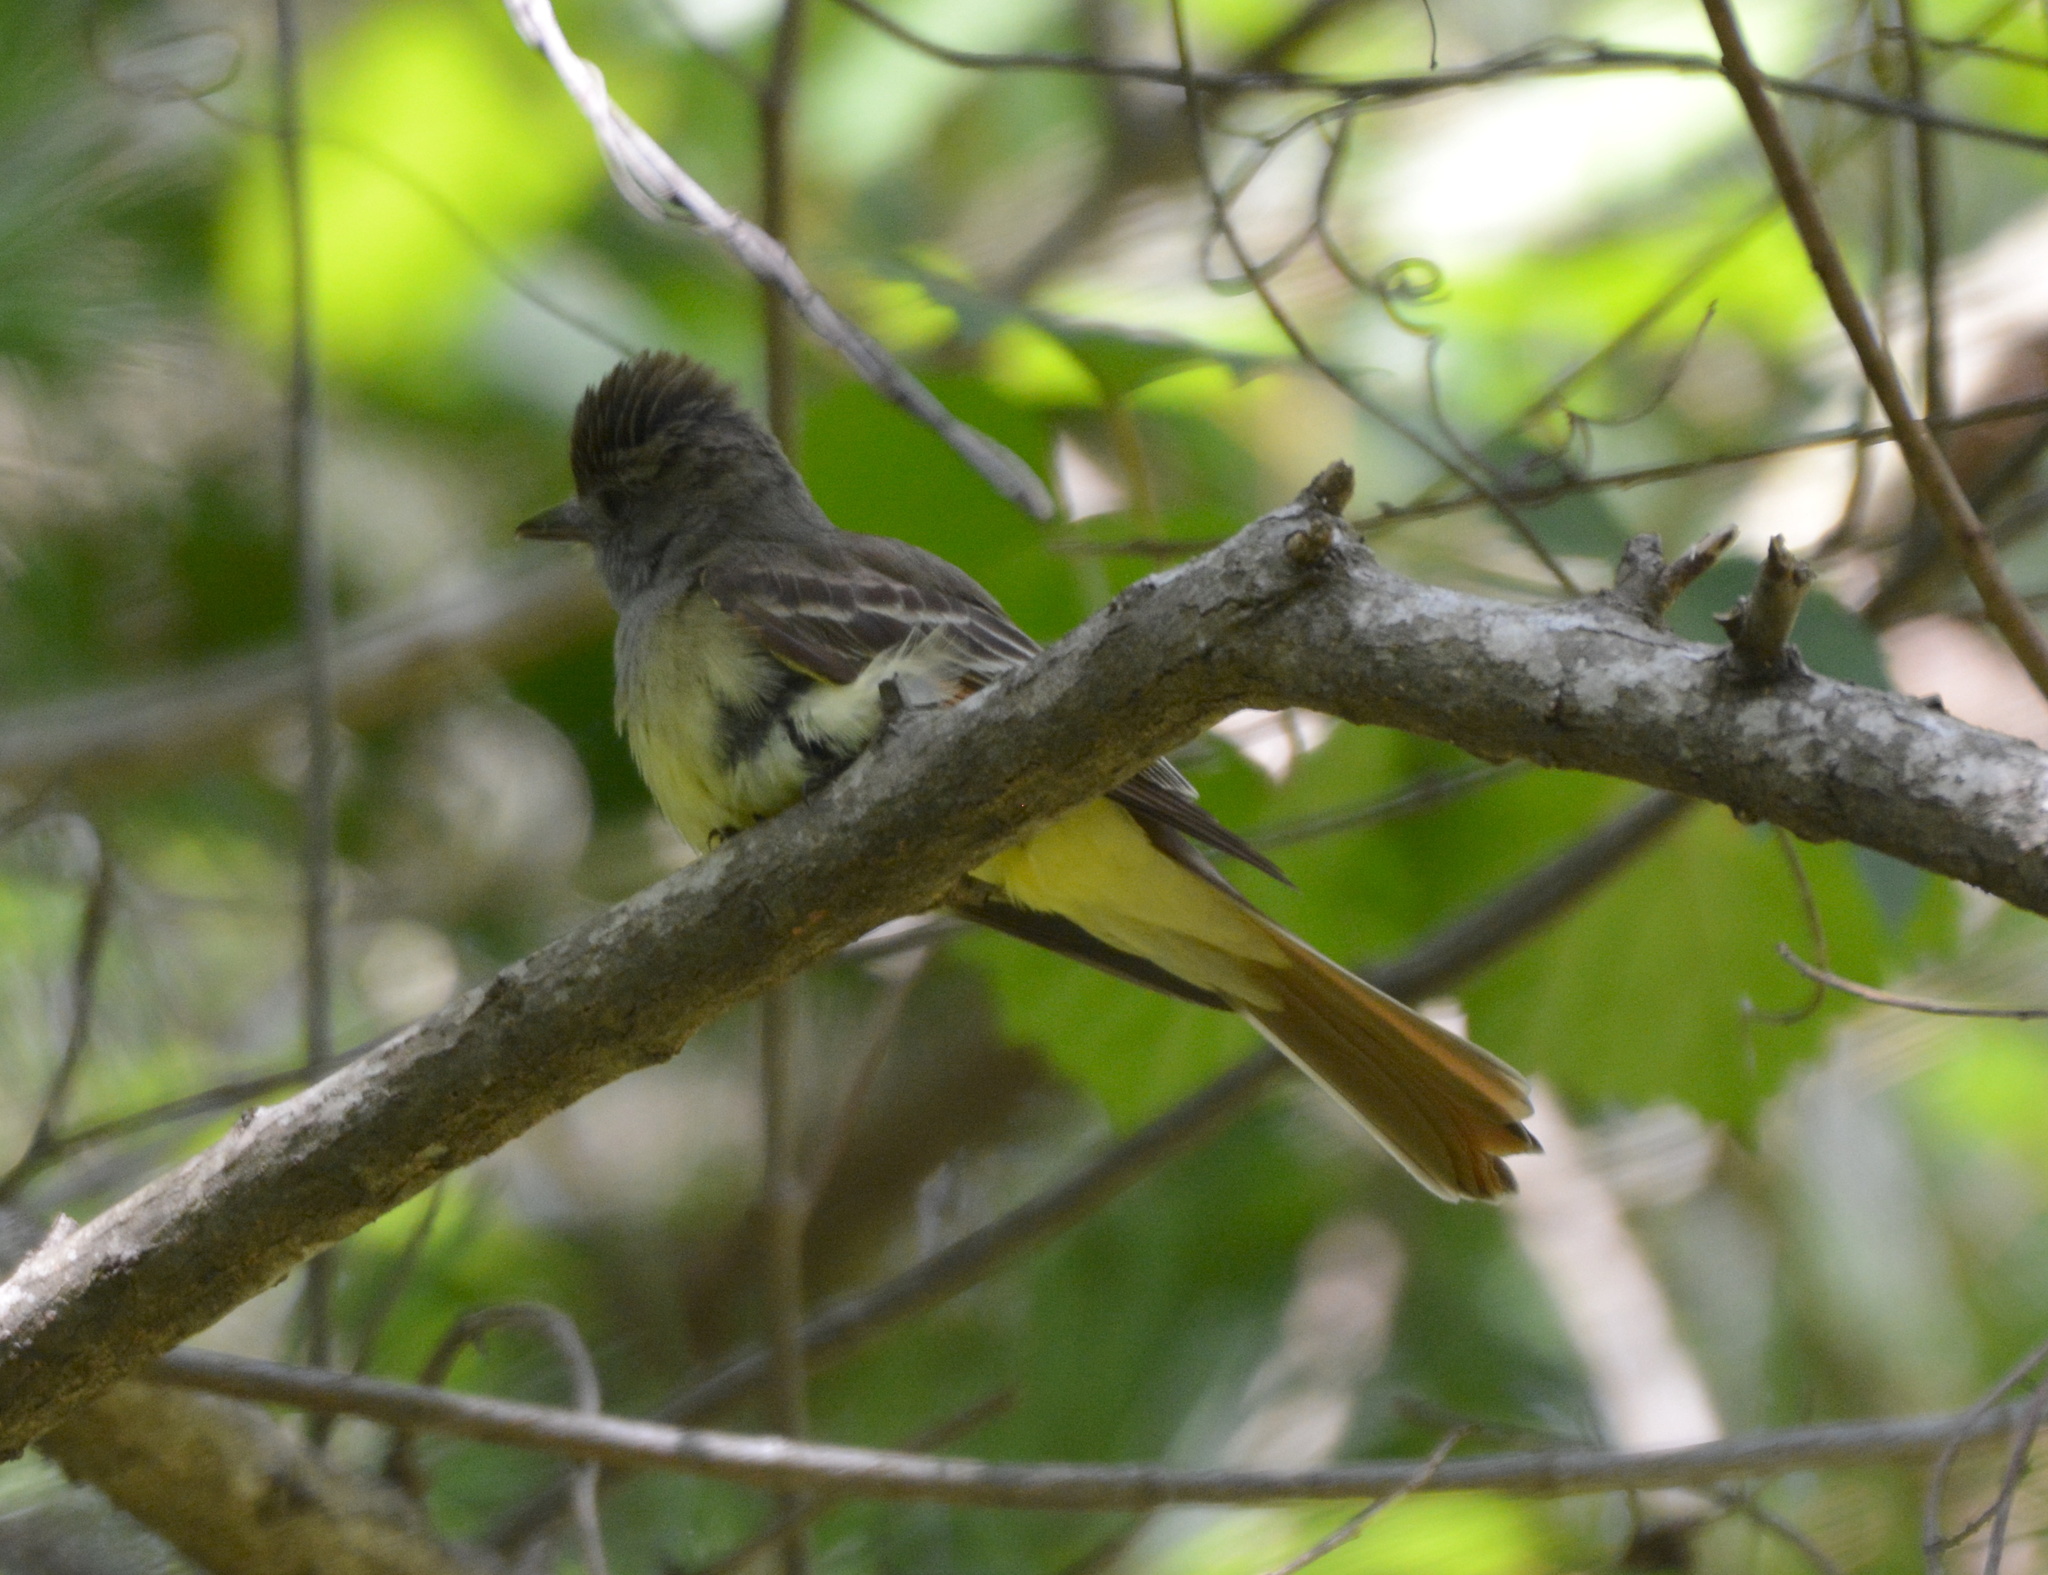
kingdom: Animalia
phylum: Chordata
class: Aves
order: Passeriformes
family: Tyrannidae
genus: Myiarchus
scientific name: Myiarchus crinitus
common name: Great crested flycatcher
